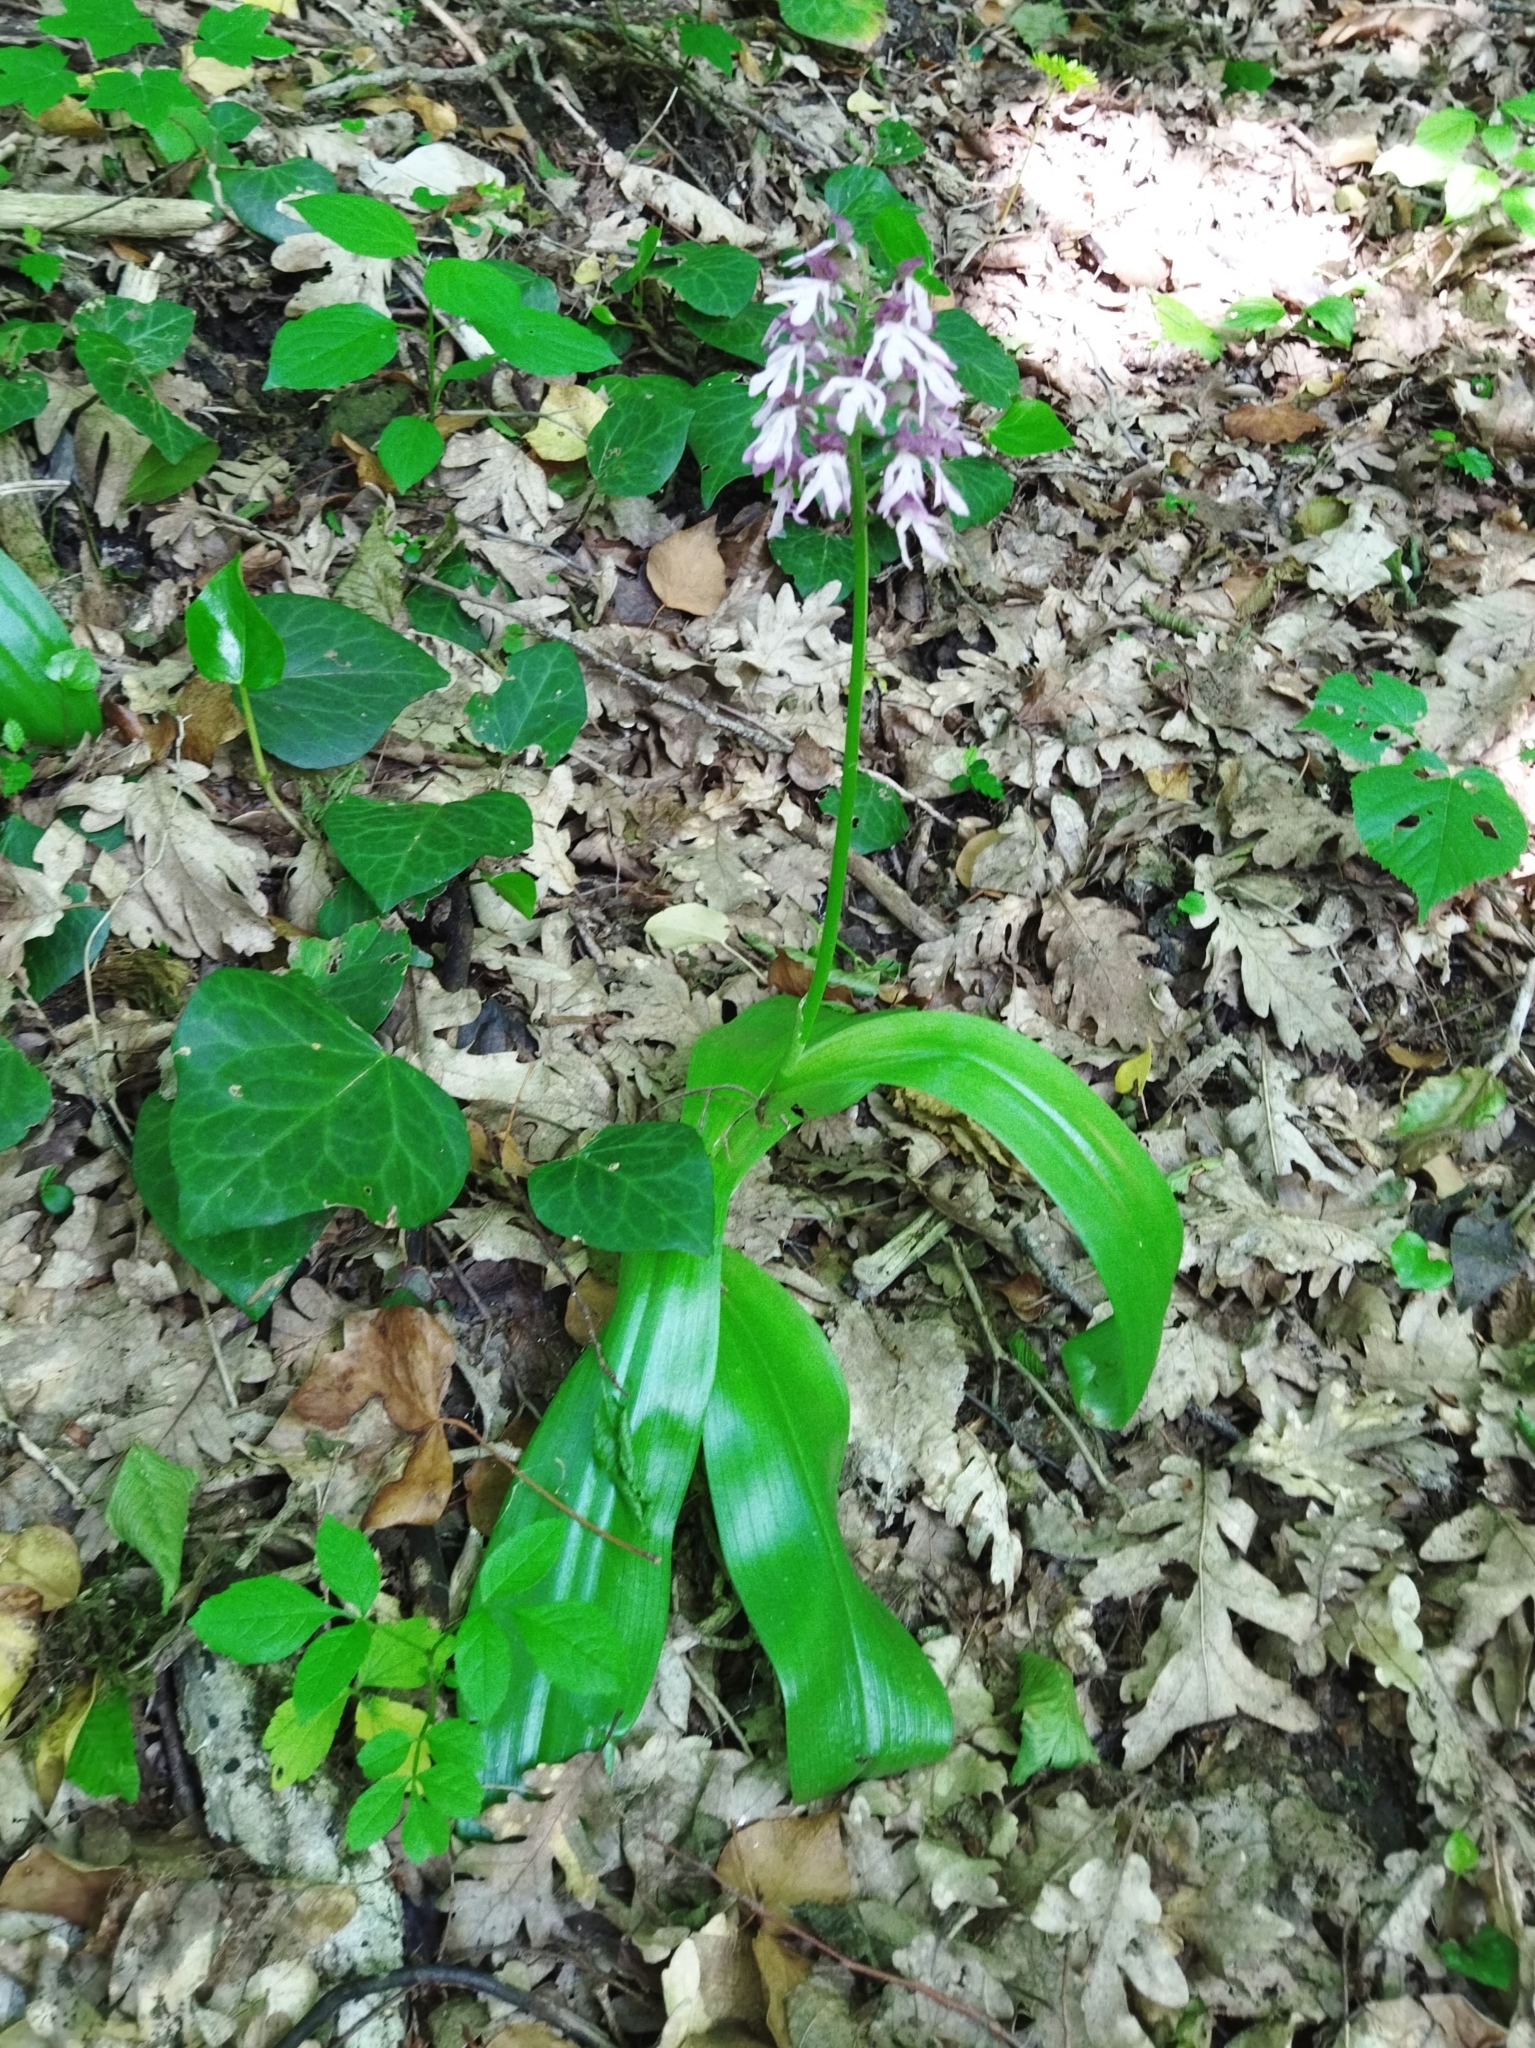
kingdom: Plantae
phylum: Tracheophyta
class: Liliopsida
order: Asparagales
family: Orchidaceae
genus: Orchis
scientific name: Orchis purpurea
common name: Lady orchid
